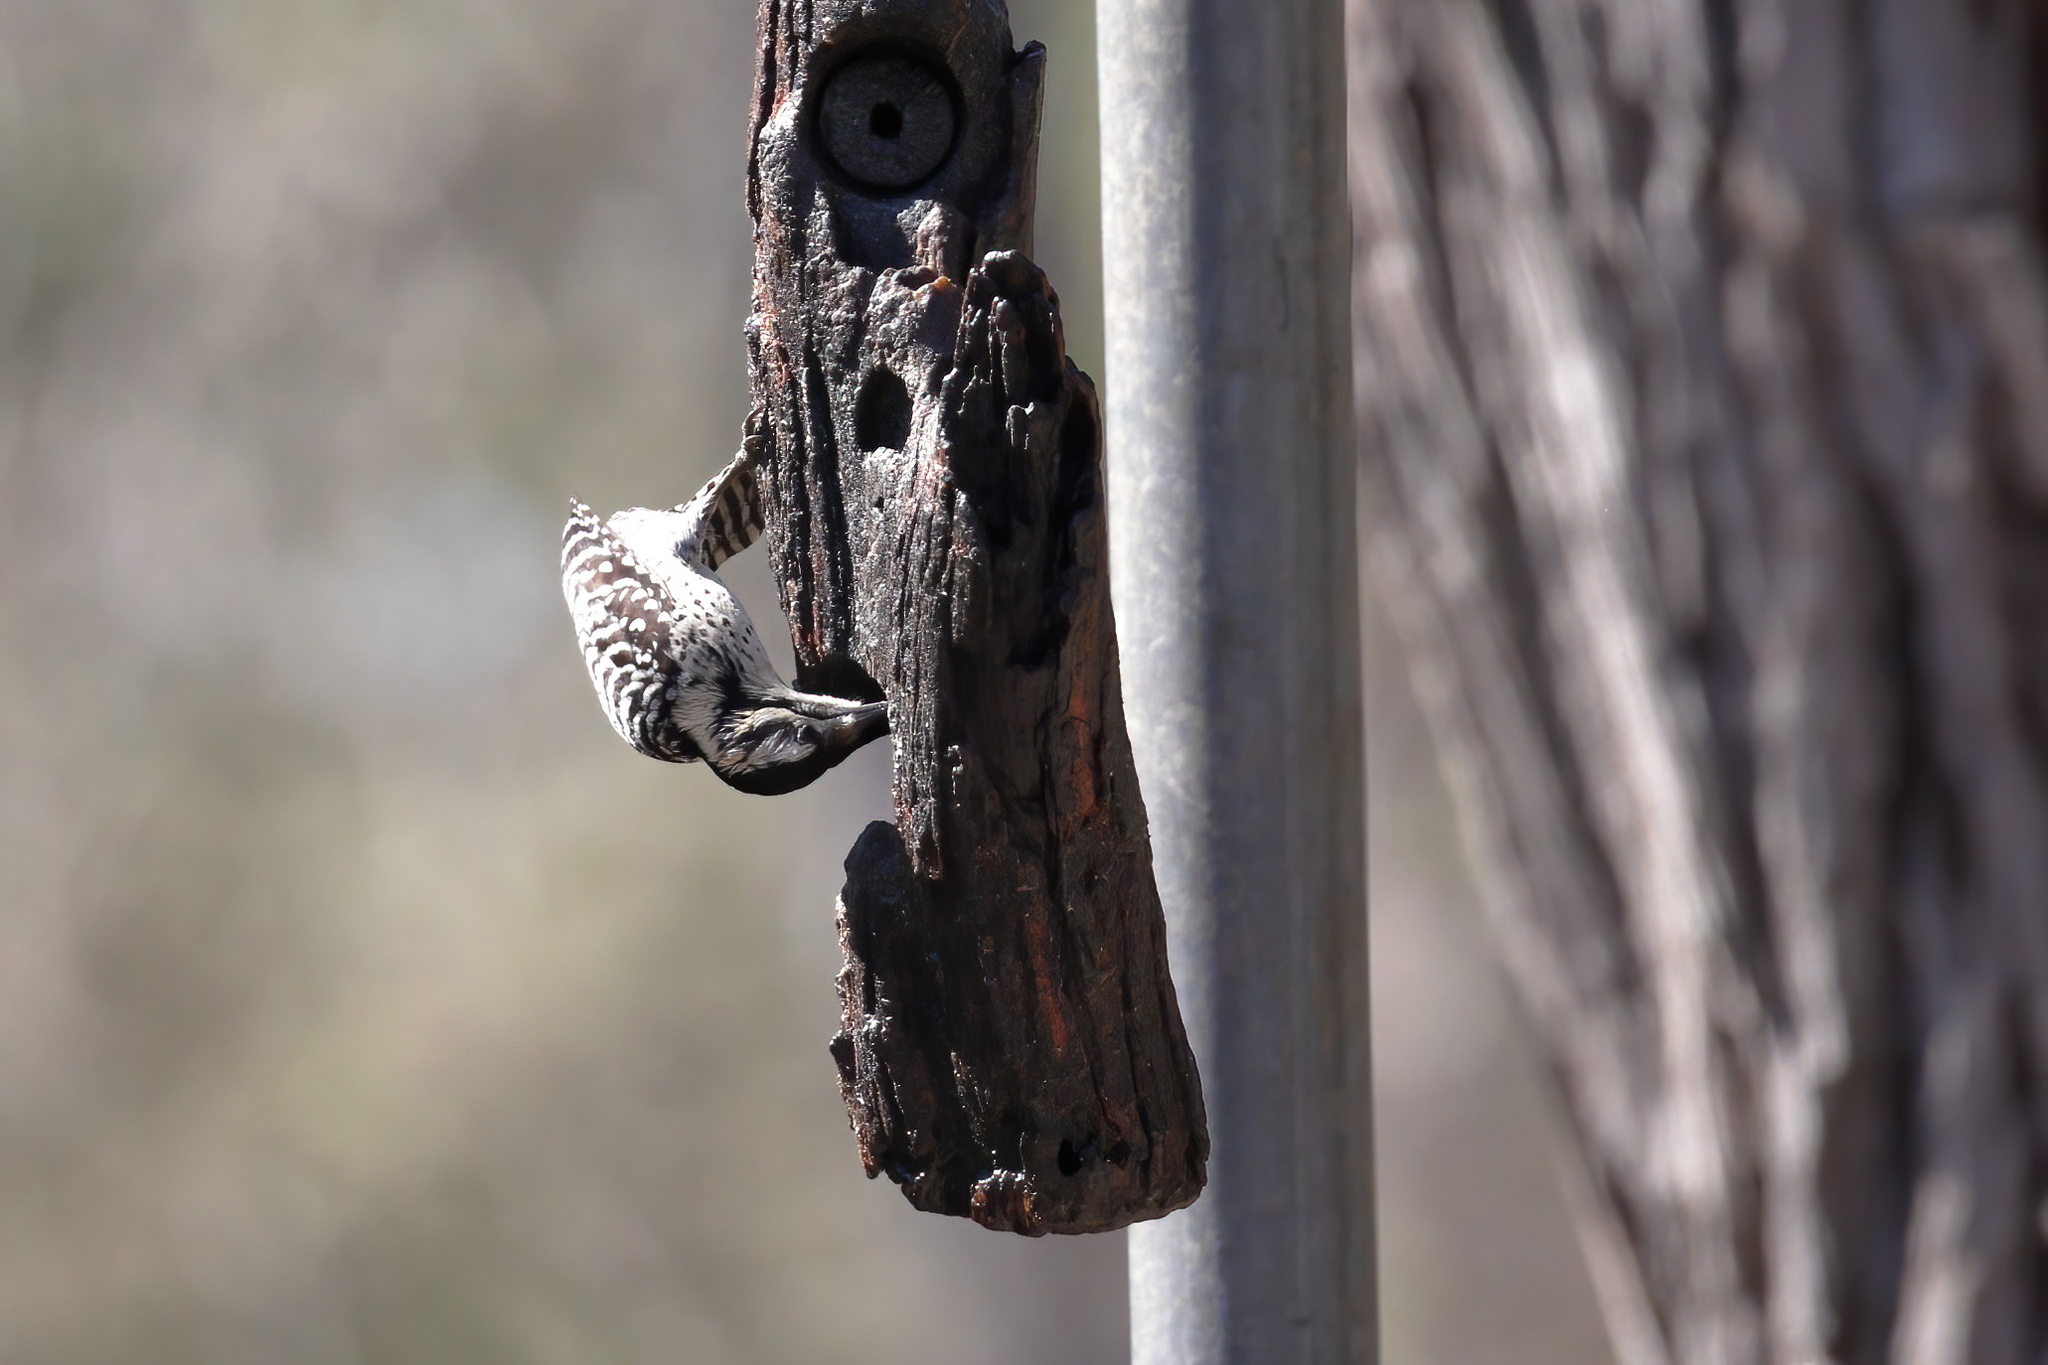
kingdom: Animalia
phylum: Chordata
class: Aves
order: Piciformes
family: Picidae
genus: Dryobates
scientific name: Dryobates scalaris
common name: Ladder-backed woodpecker
